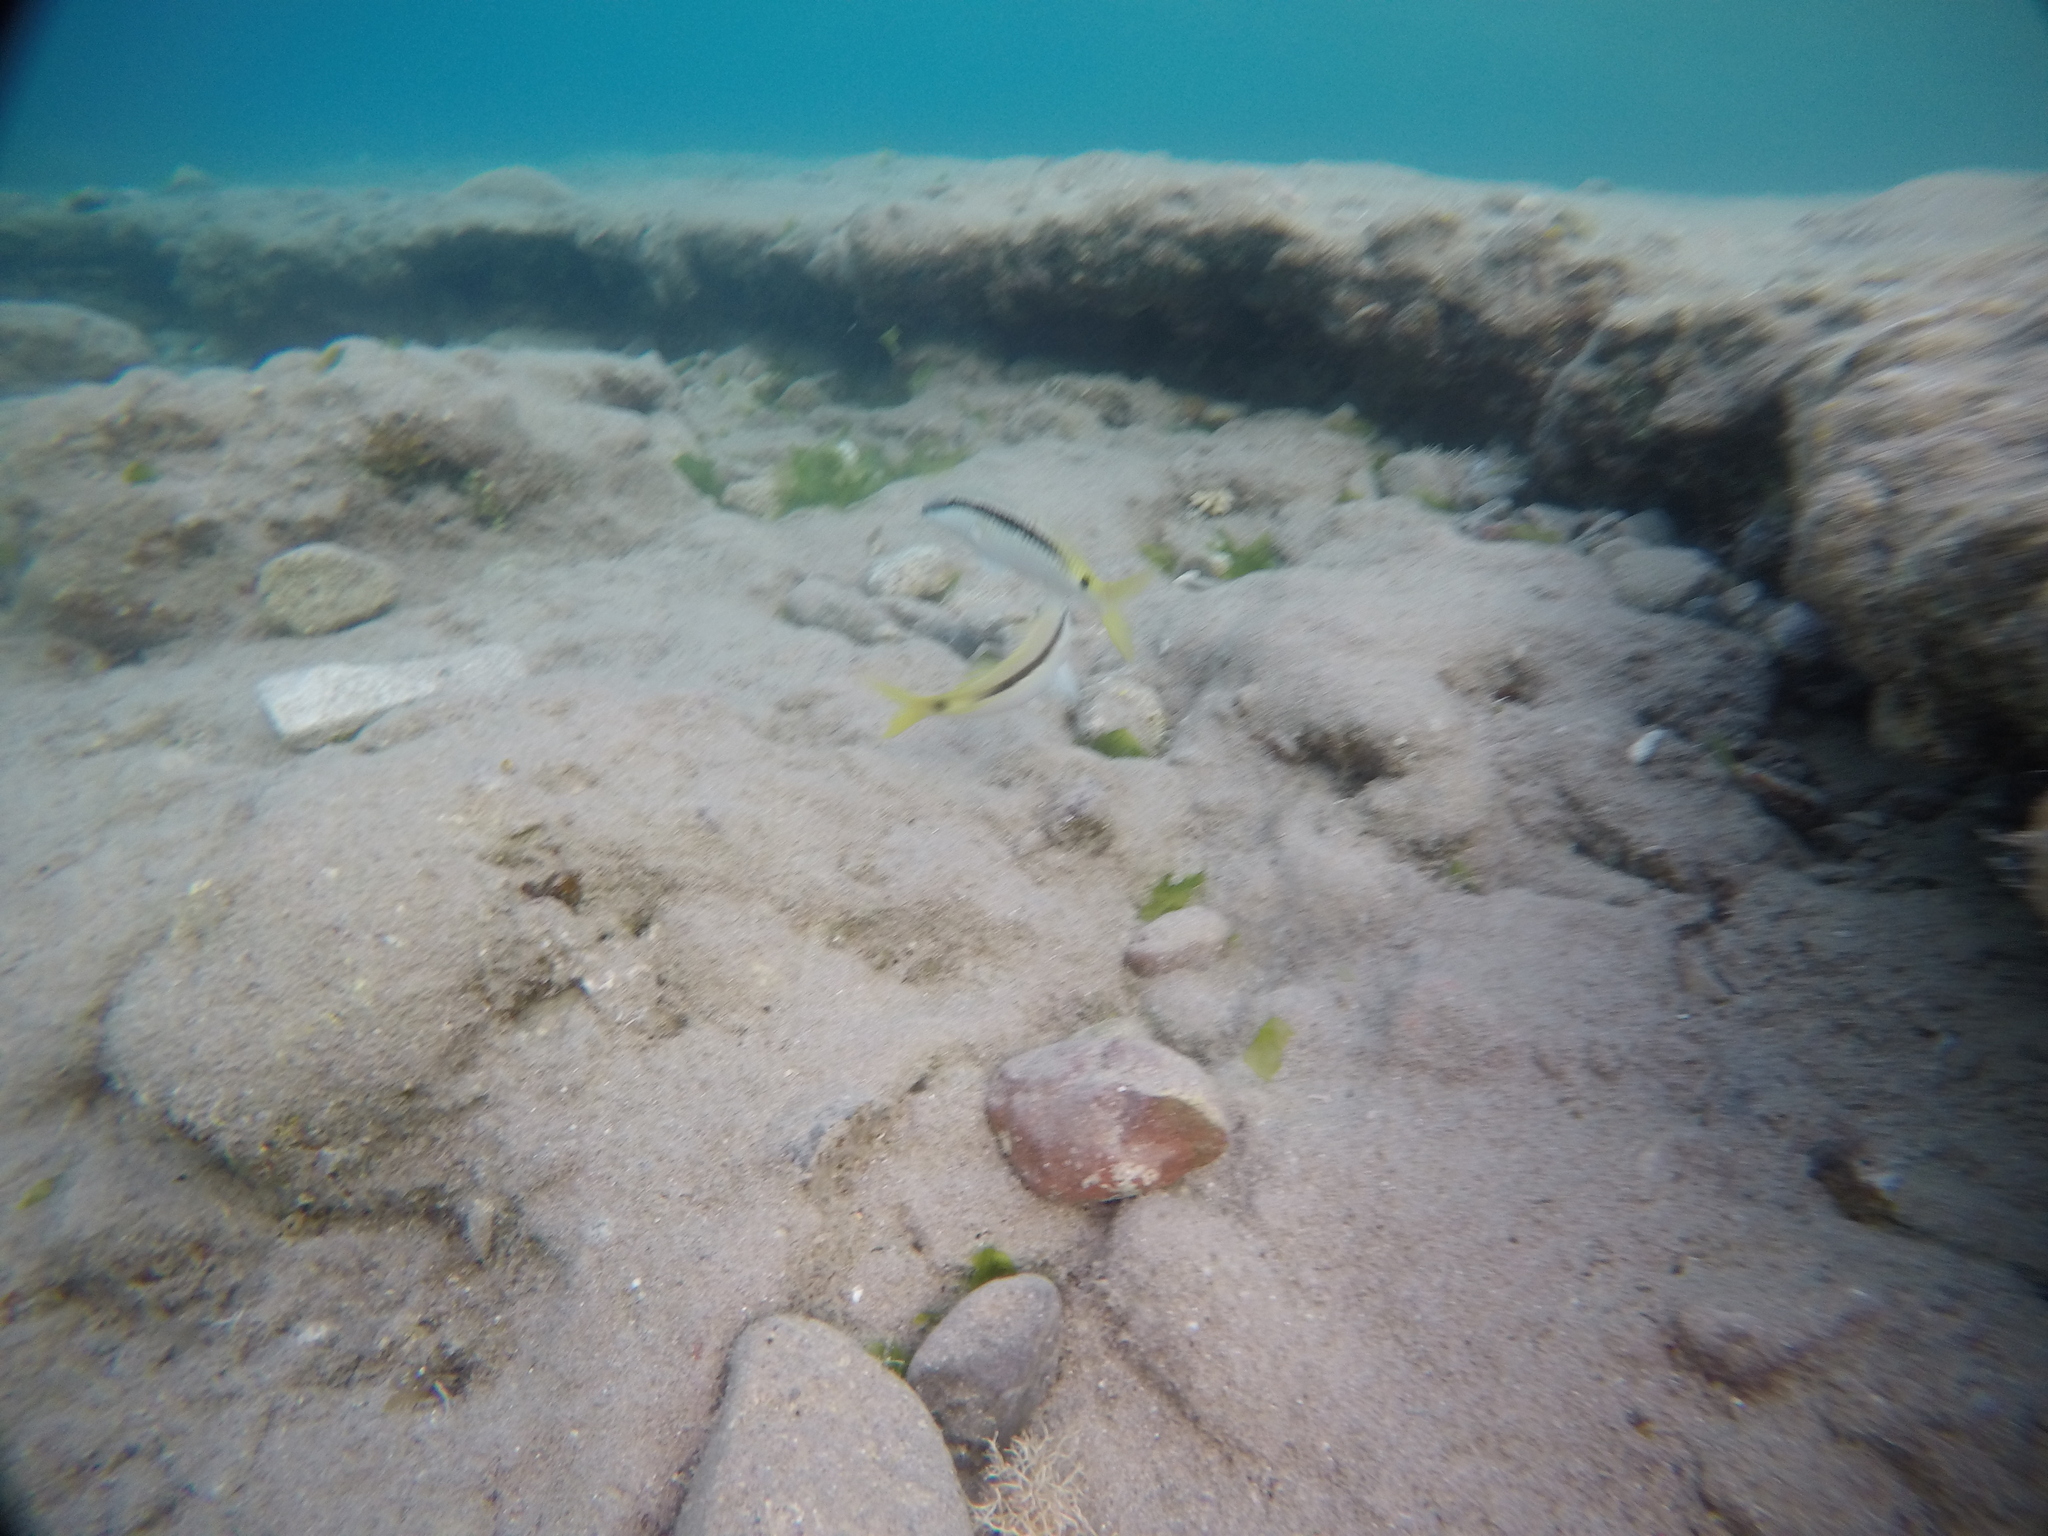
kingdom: Animalia
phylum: Chordata
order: Perciformes
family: Mullidae
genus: Parupeneus
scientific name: Parupeneus forsskali
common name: Red sea goatfish
